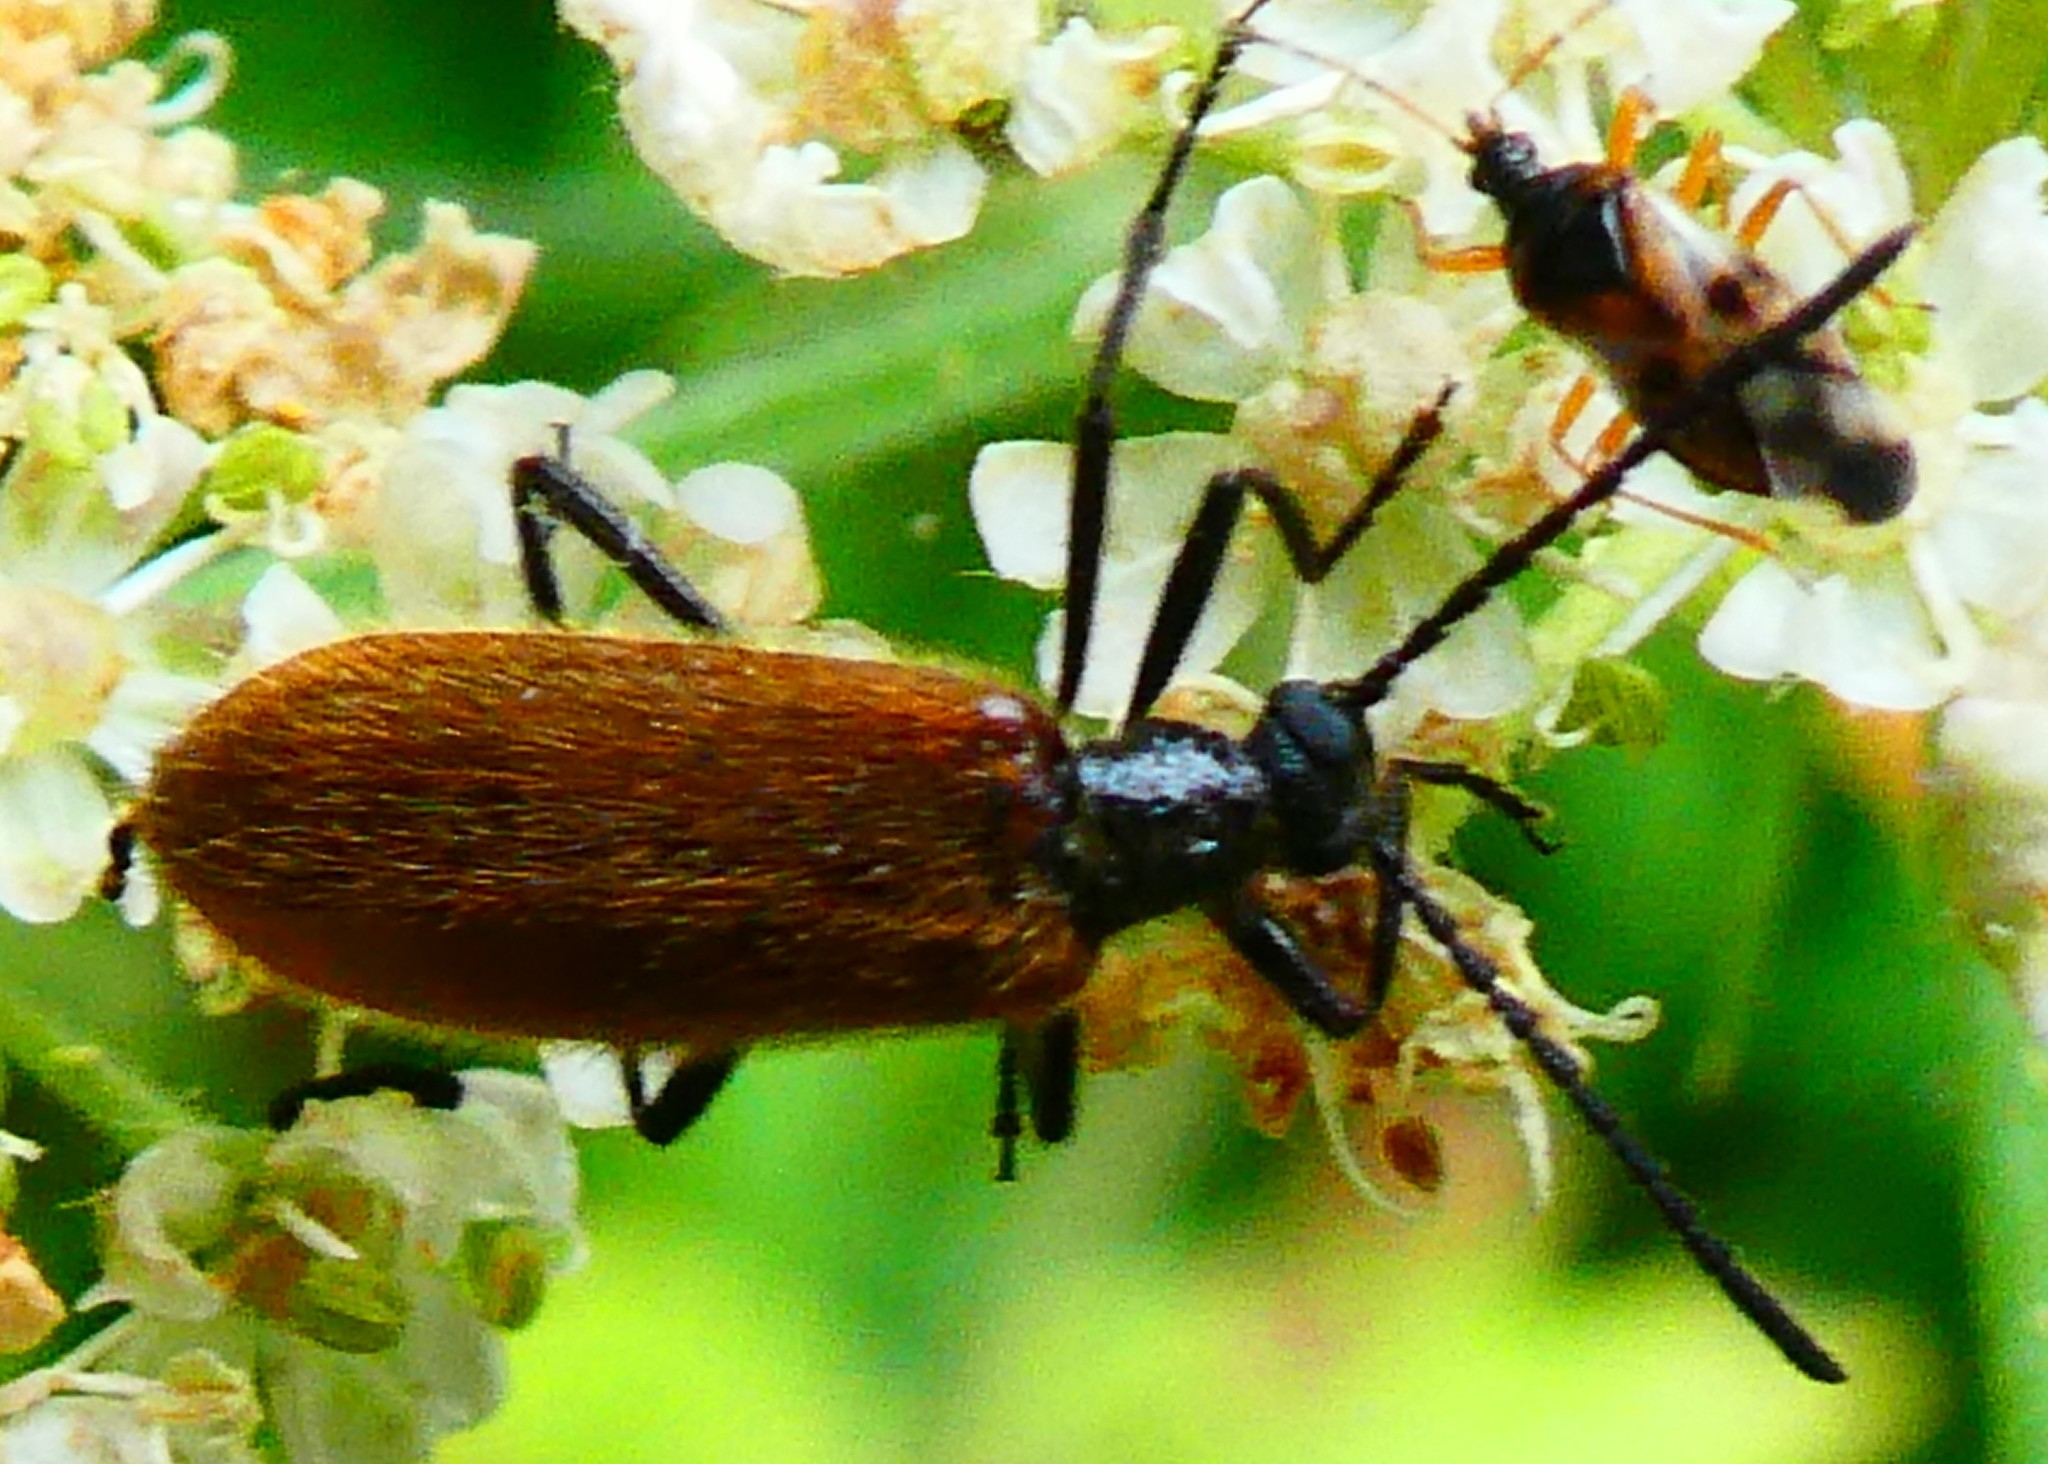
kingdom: Animalia
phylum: Arthropoda
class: Insecta
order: Coleoptera
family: Tenebrionidae
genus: Lagria
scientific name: Lagria hirta
